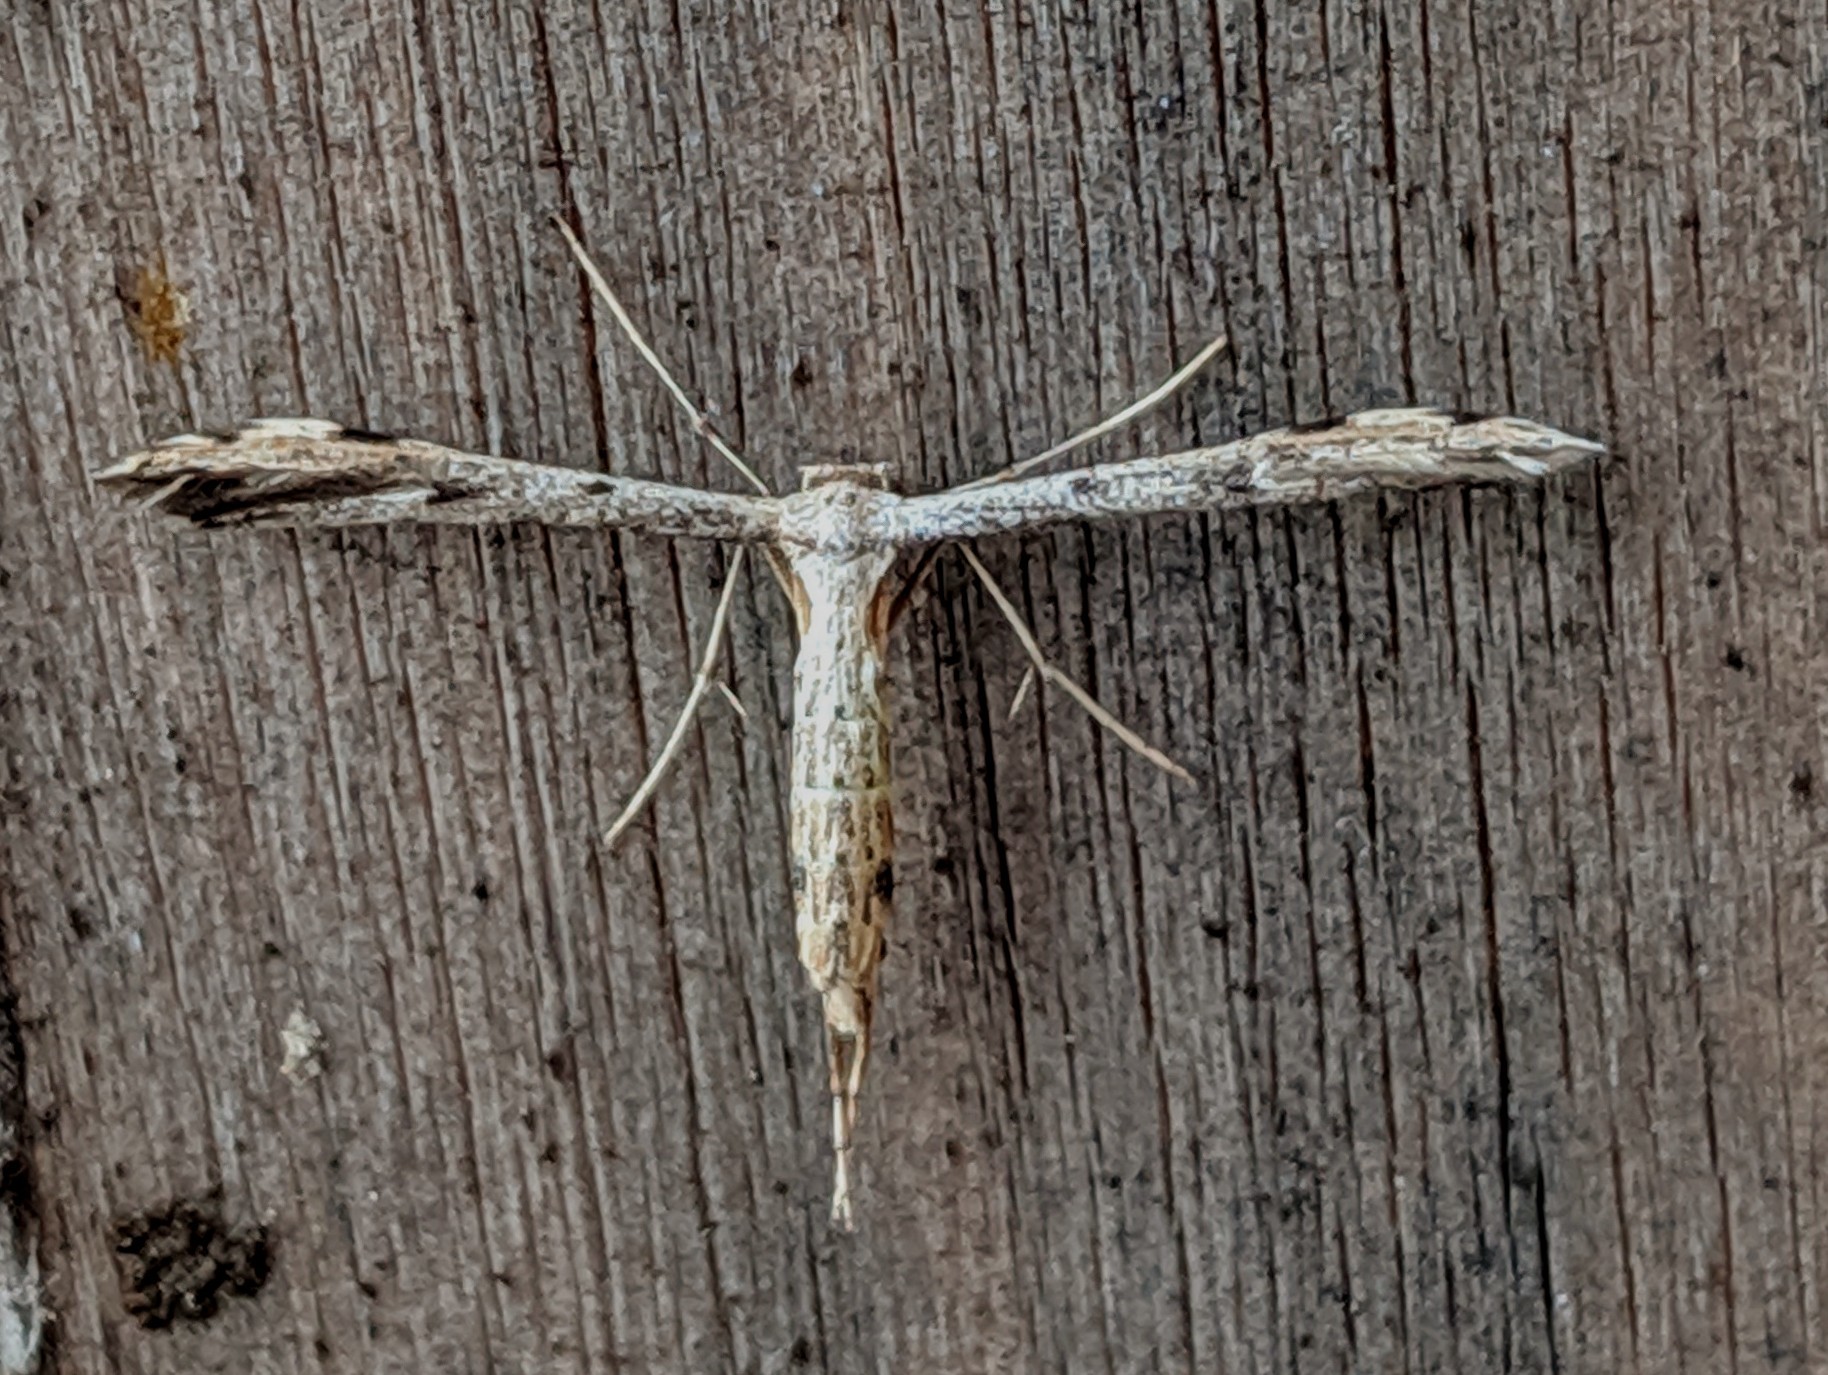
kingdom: Animalia
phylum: Arthropoda
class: Insecta
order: Lepidoptera
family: Pterophoridae
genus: Adaina
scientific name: Adaina ambrosiae
